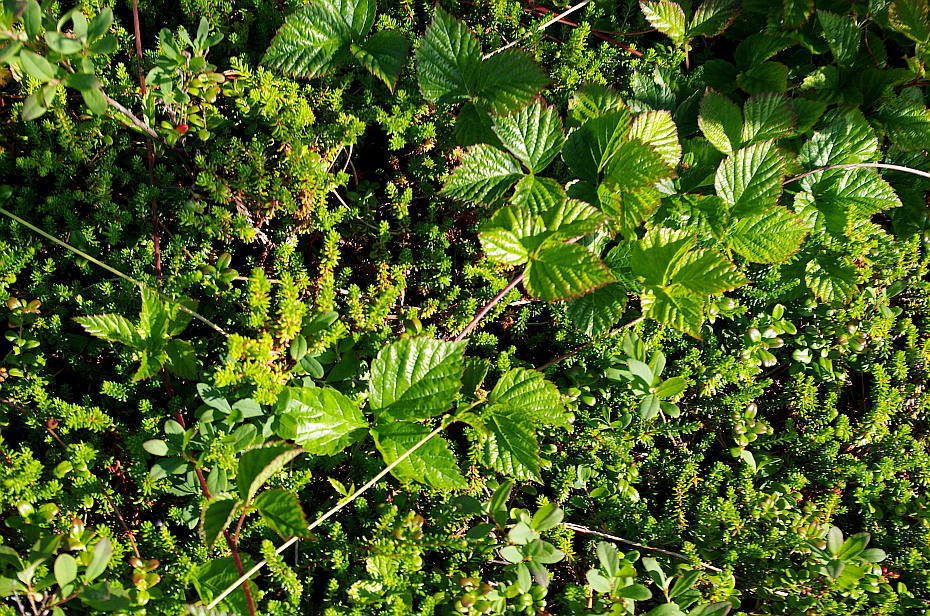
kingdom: Plantae
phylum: Tracheophyta
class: Magnoliopsida
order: Rosales
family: Rosaceae
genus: Rubus
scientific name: Rubus saxatilis
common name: Stone bramble
